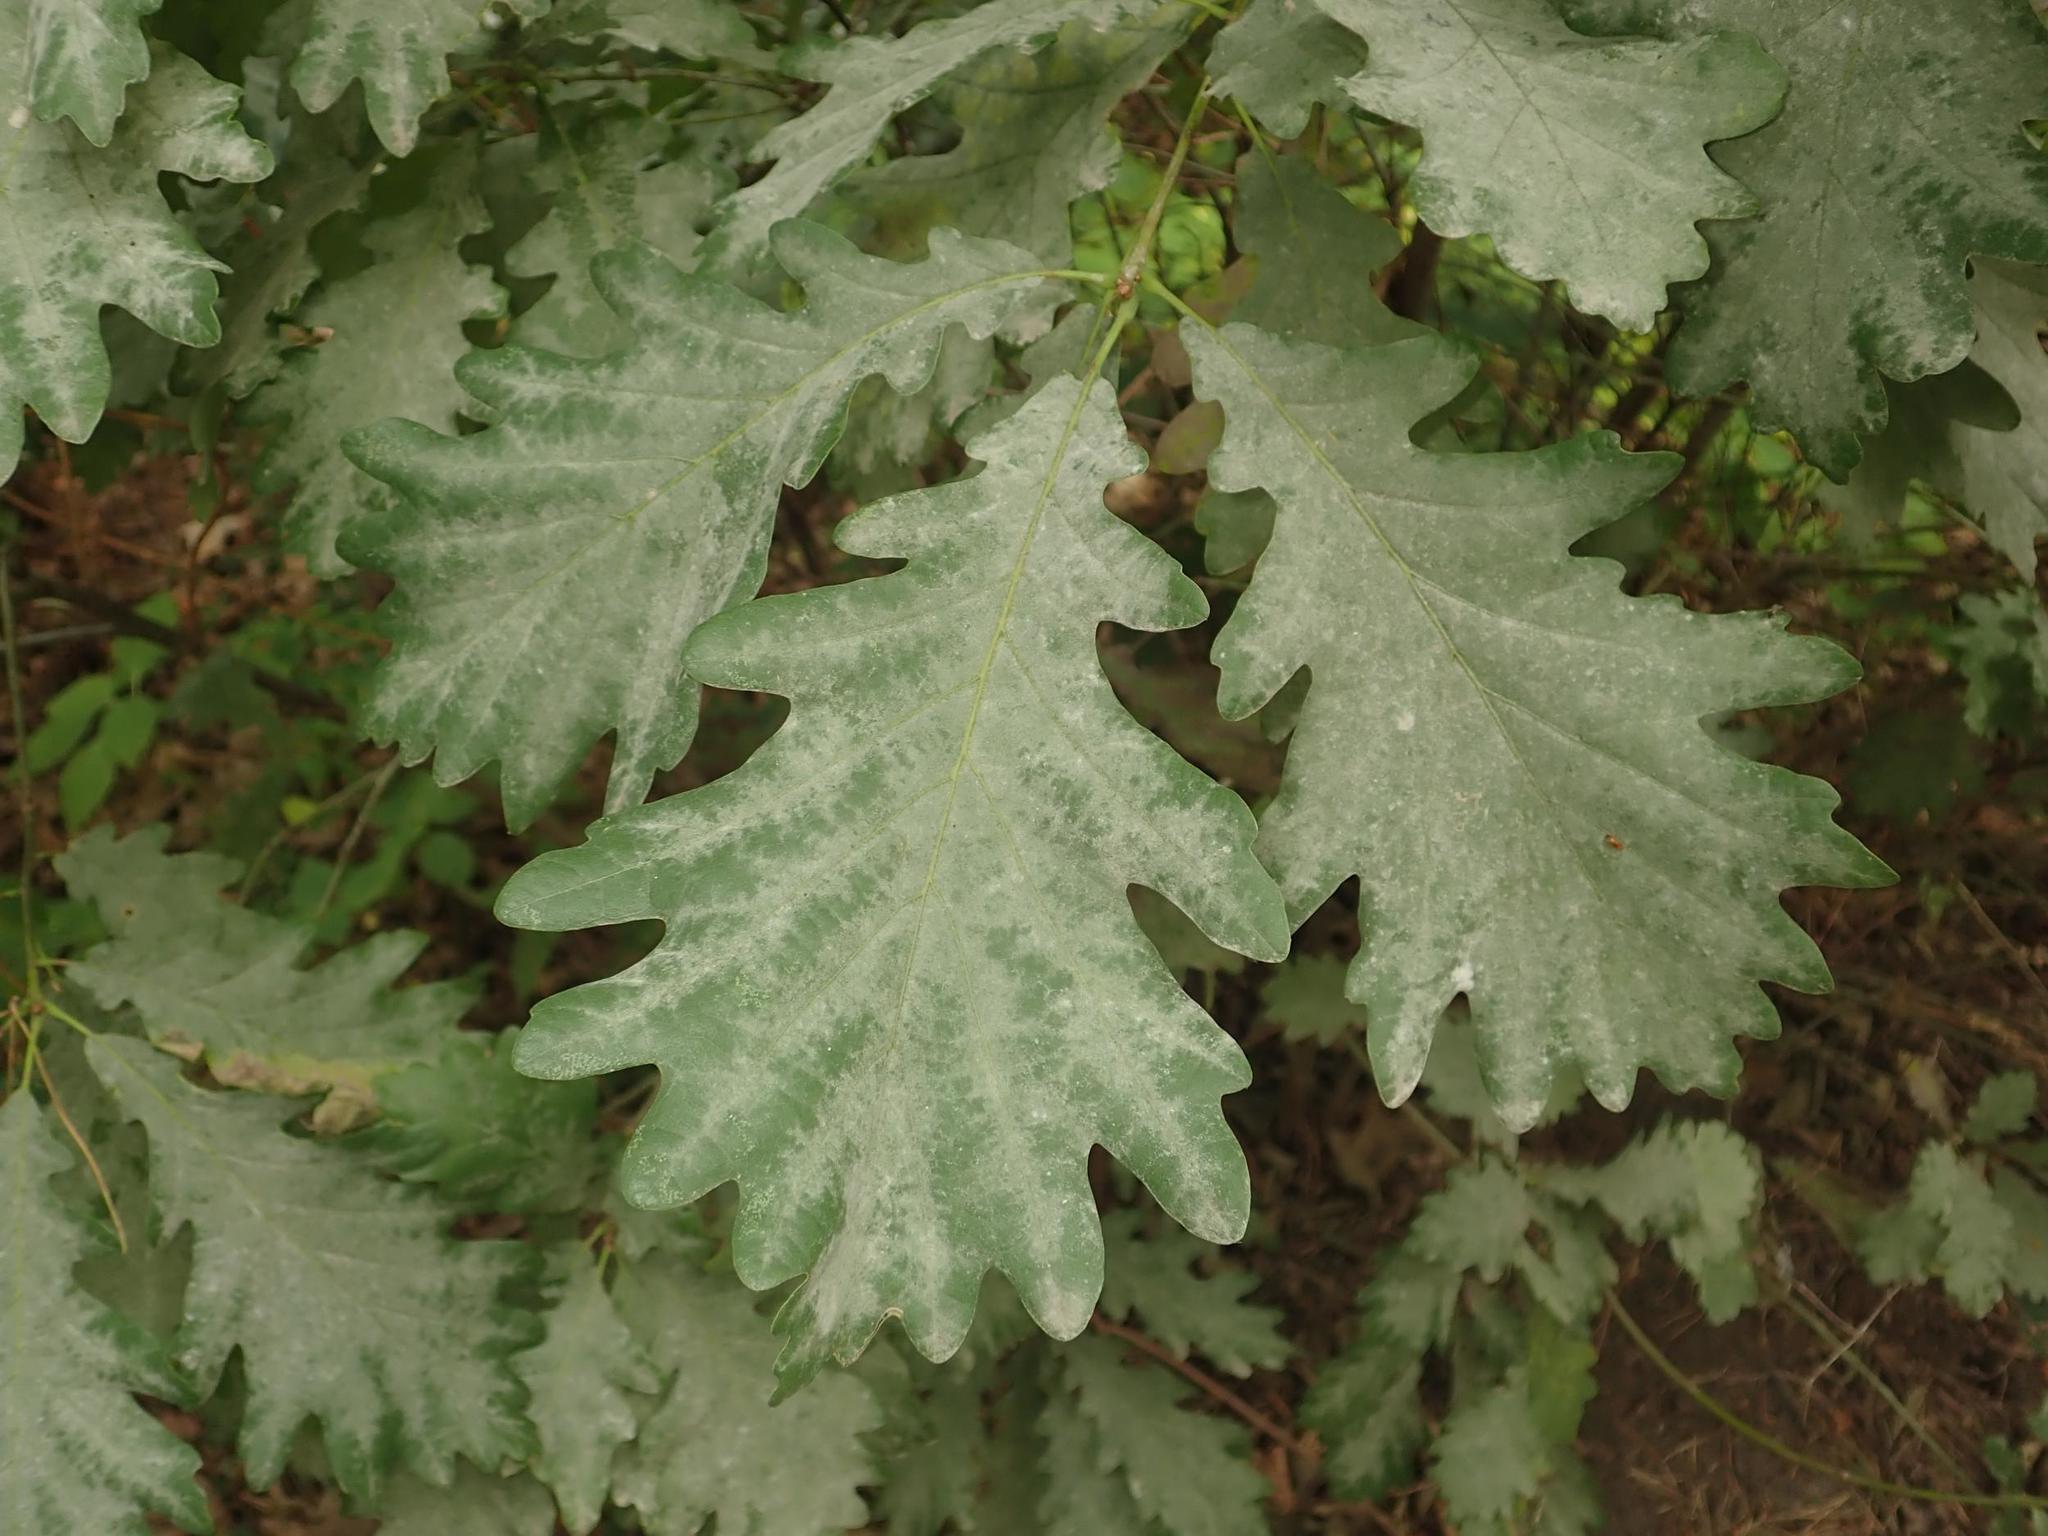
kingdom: Fungi
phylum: Ascomycota
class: Leotiomycetes
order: Helotiales
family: Erysiphaceae
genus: Erysiphe
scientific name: Erysiphe
